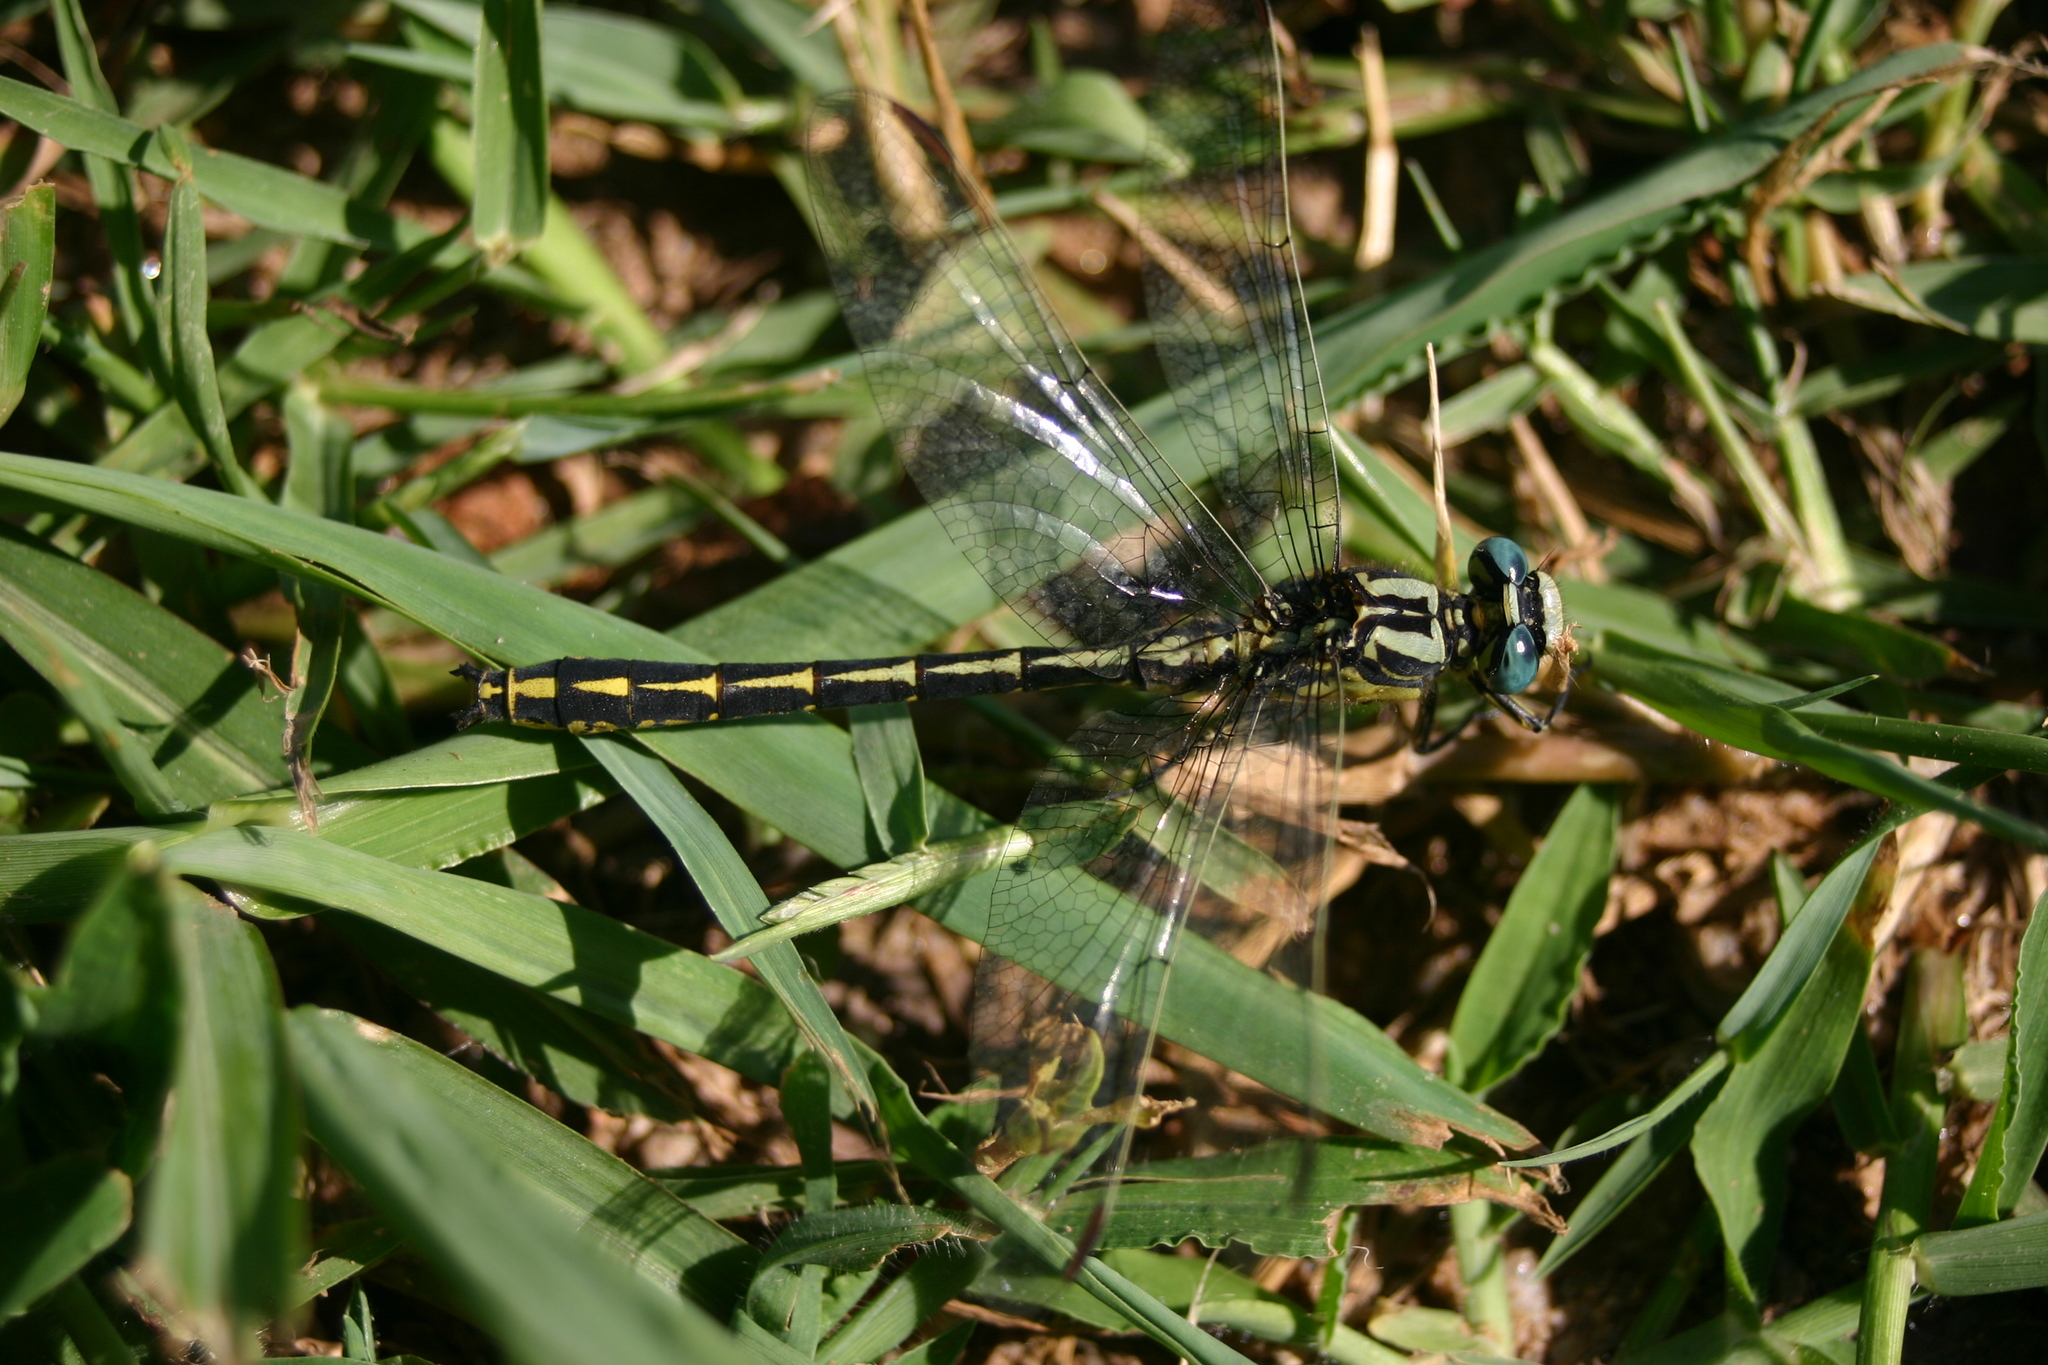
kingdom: Animalia
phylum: Arthropoda
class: Insecta
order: Odonata
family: Gomphidae
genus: Gomphus
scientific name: Gomphus graslinii
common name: Pronged clubtail
